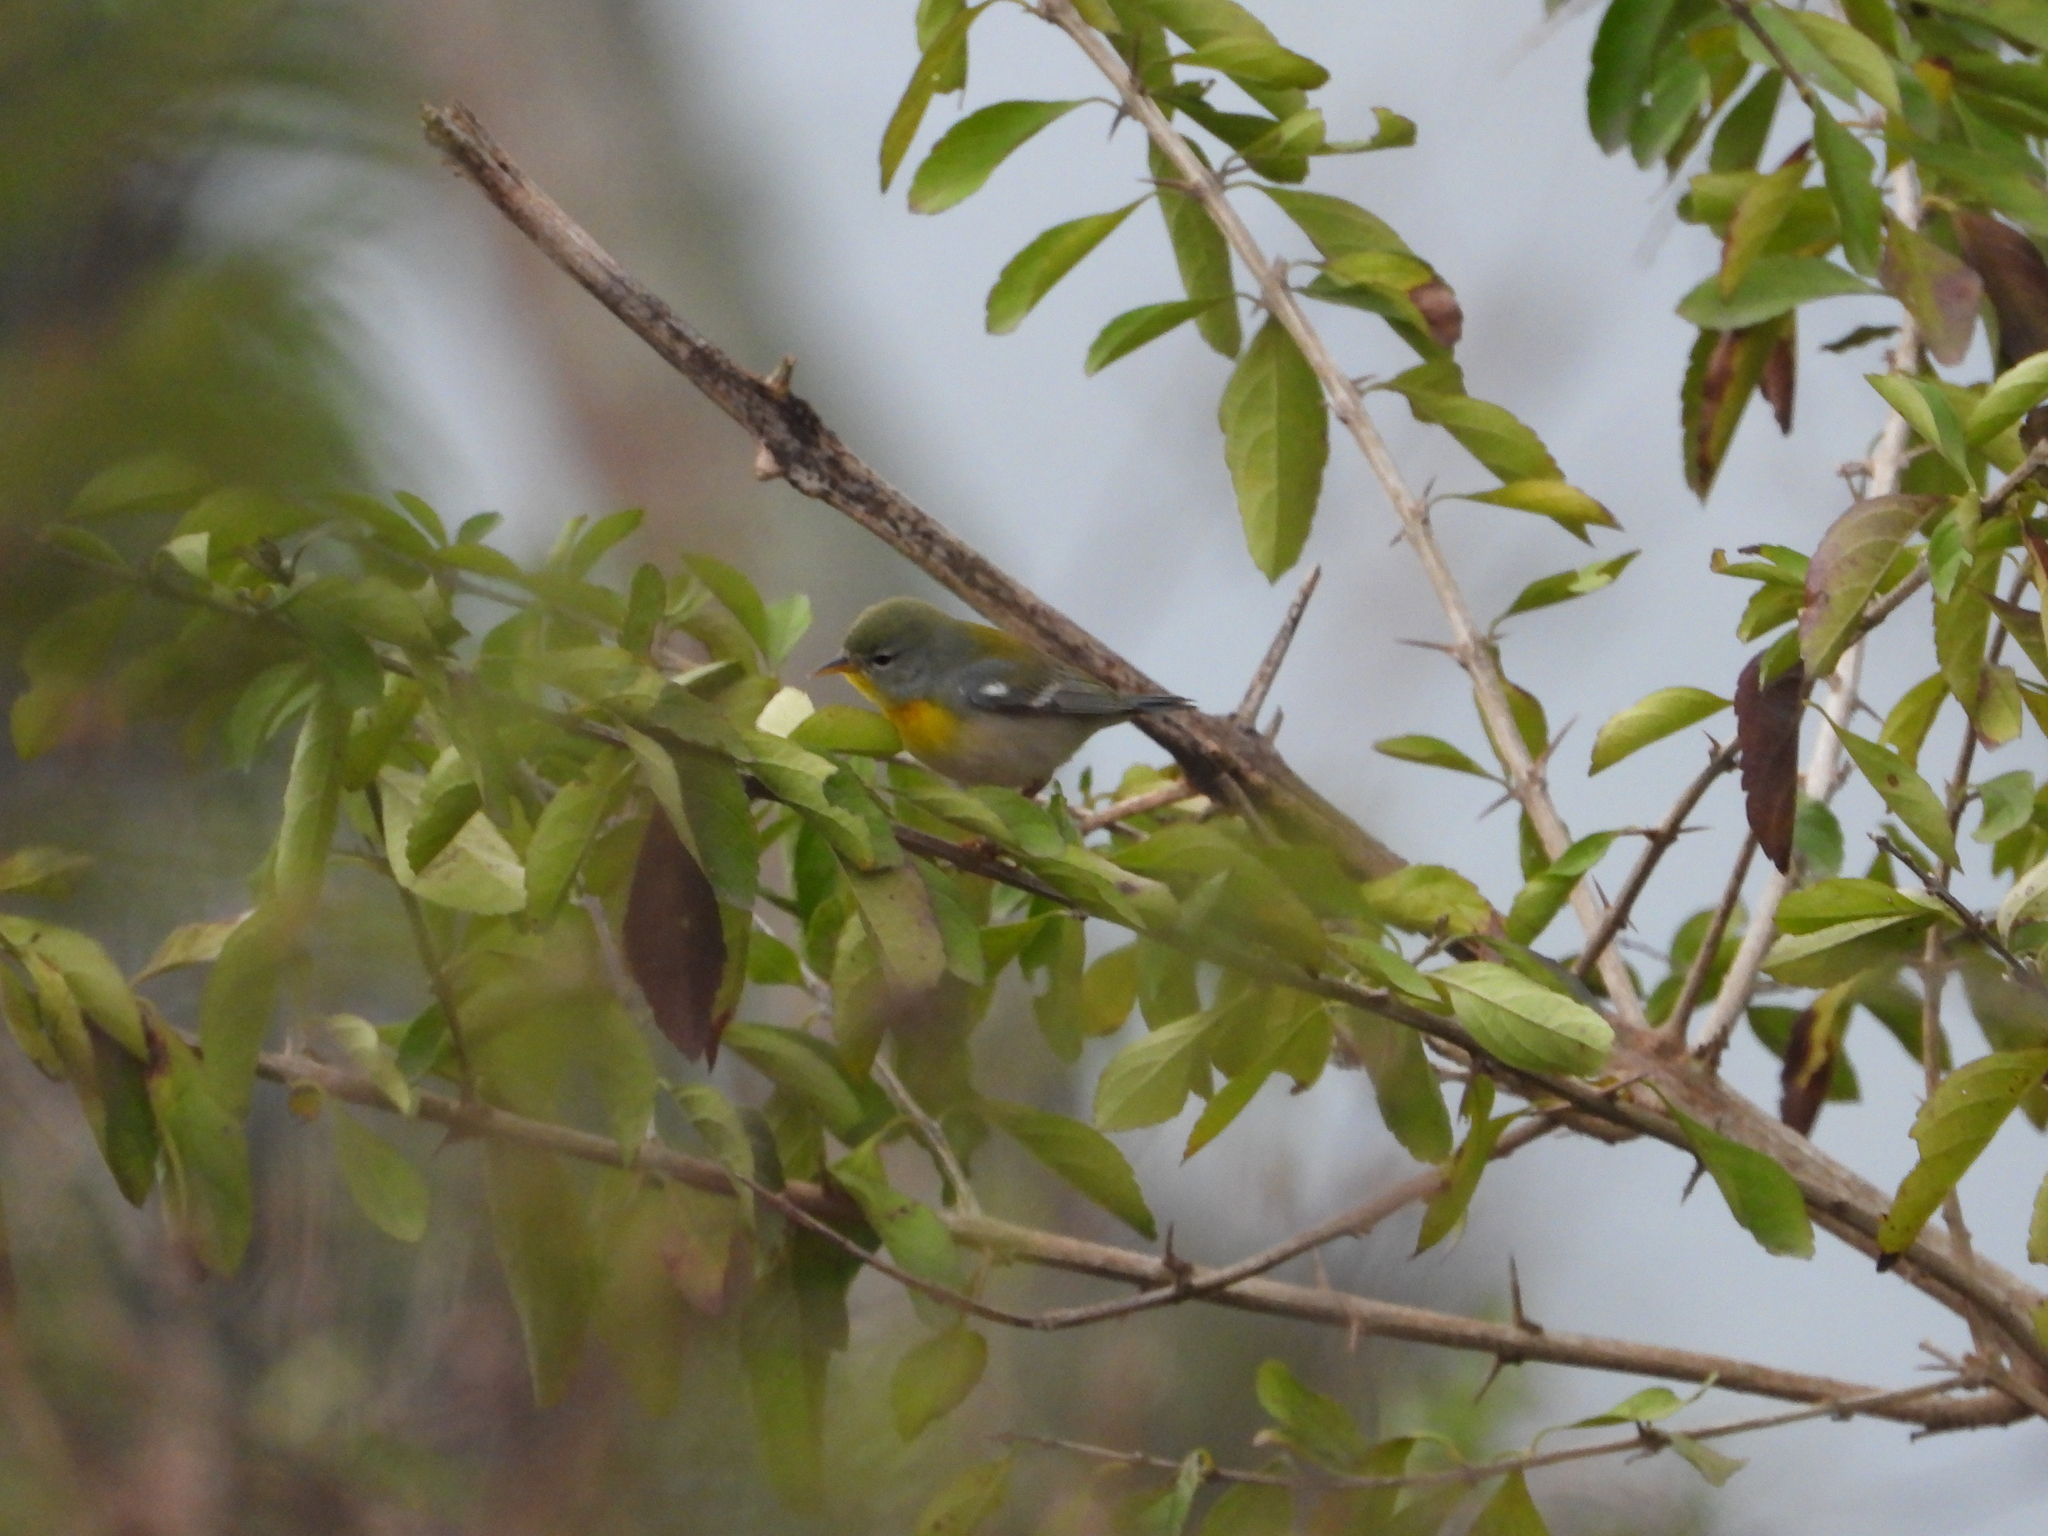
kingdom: Animalia
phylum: Chordata
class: Aves
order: Passeriformes
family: Parulidae
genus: Setophaga
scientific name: Setophaga americana
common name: Northern parula
